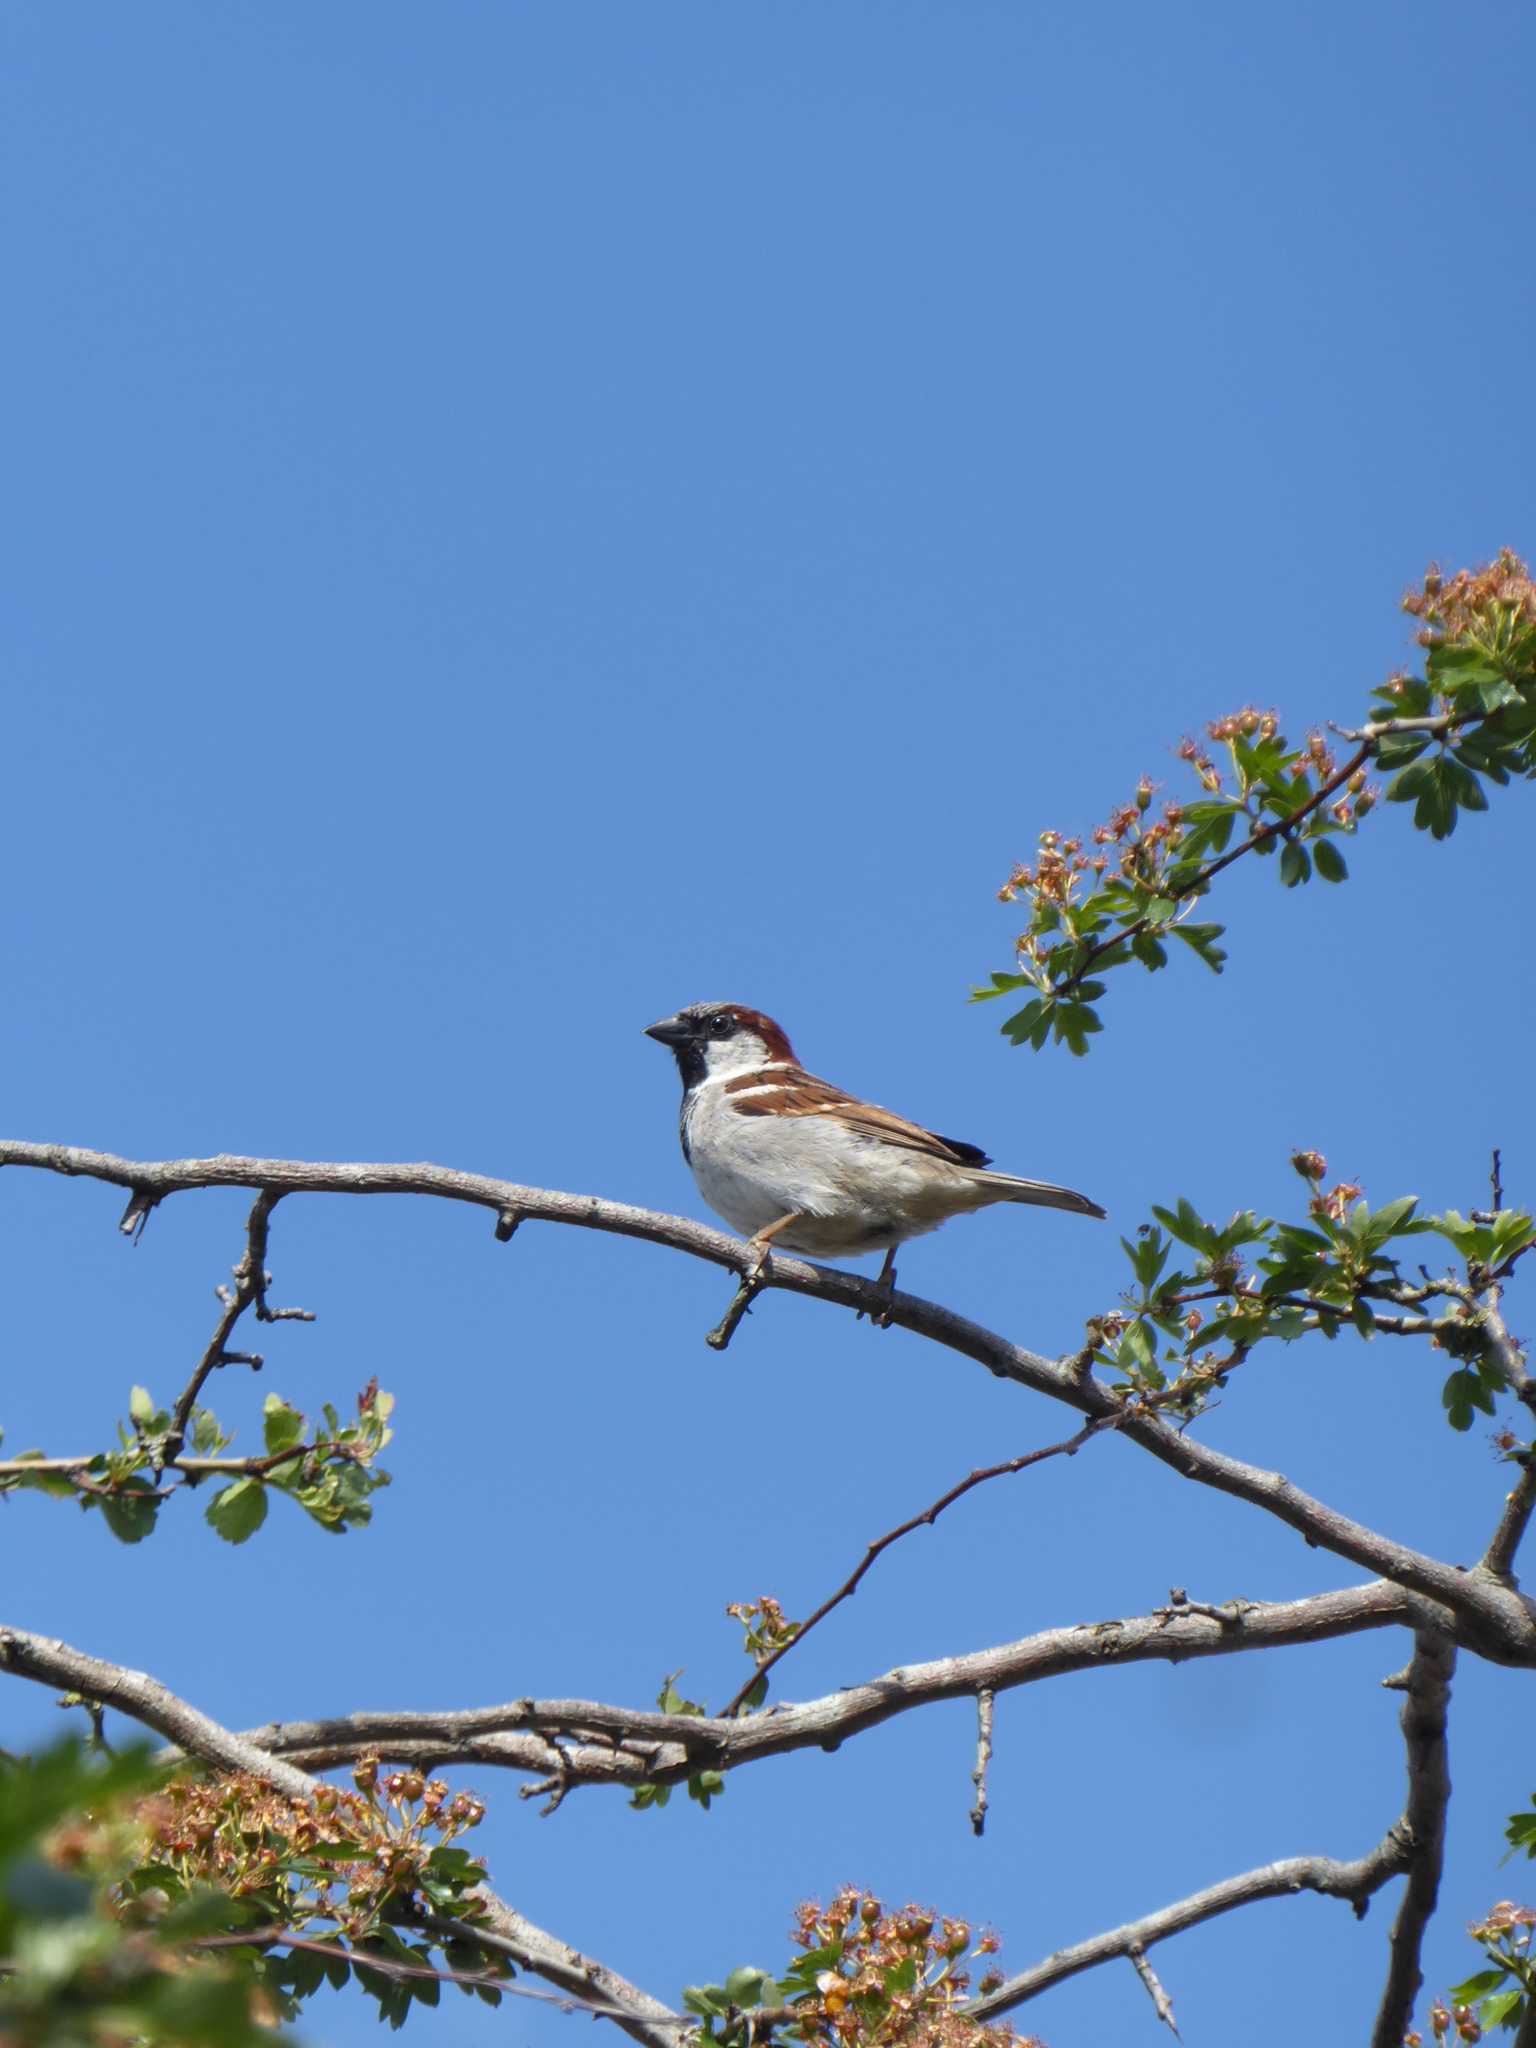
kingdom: Animalia
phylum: Chordata
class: Aves
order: Passeriformes
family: Passeridae
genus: Passer
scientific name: Passer domesticus
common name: House sparrow
